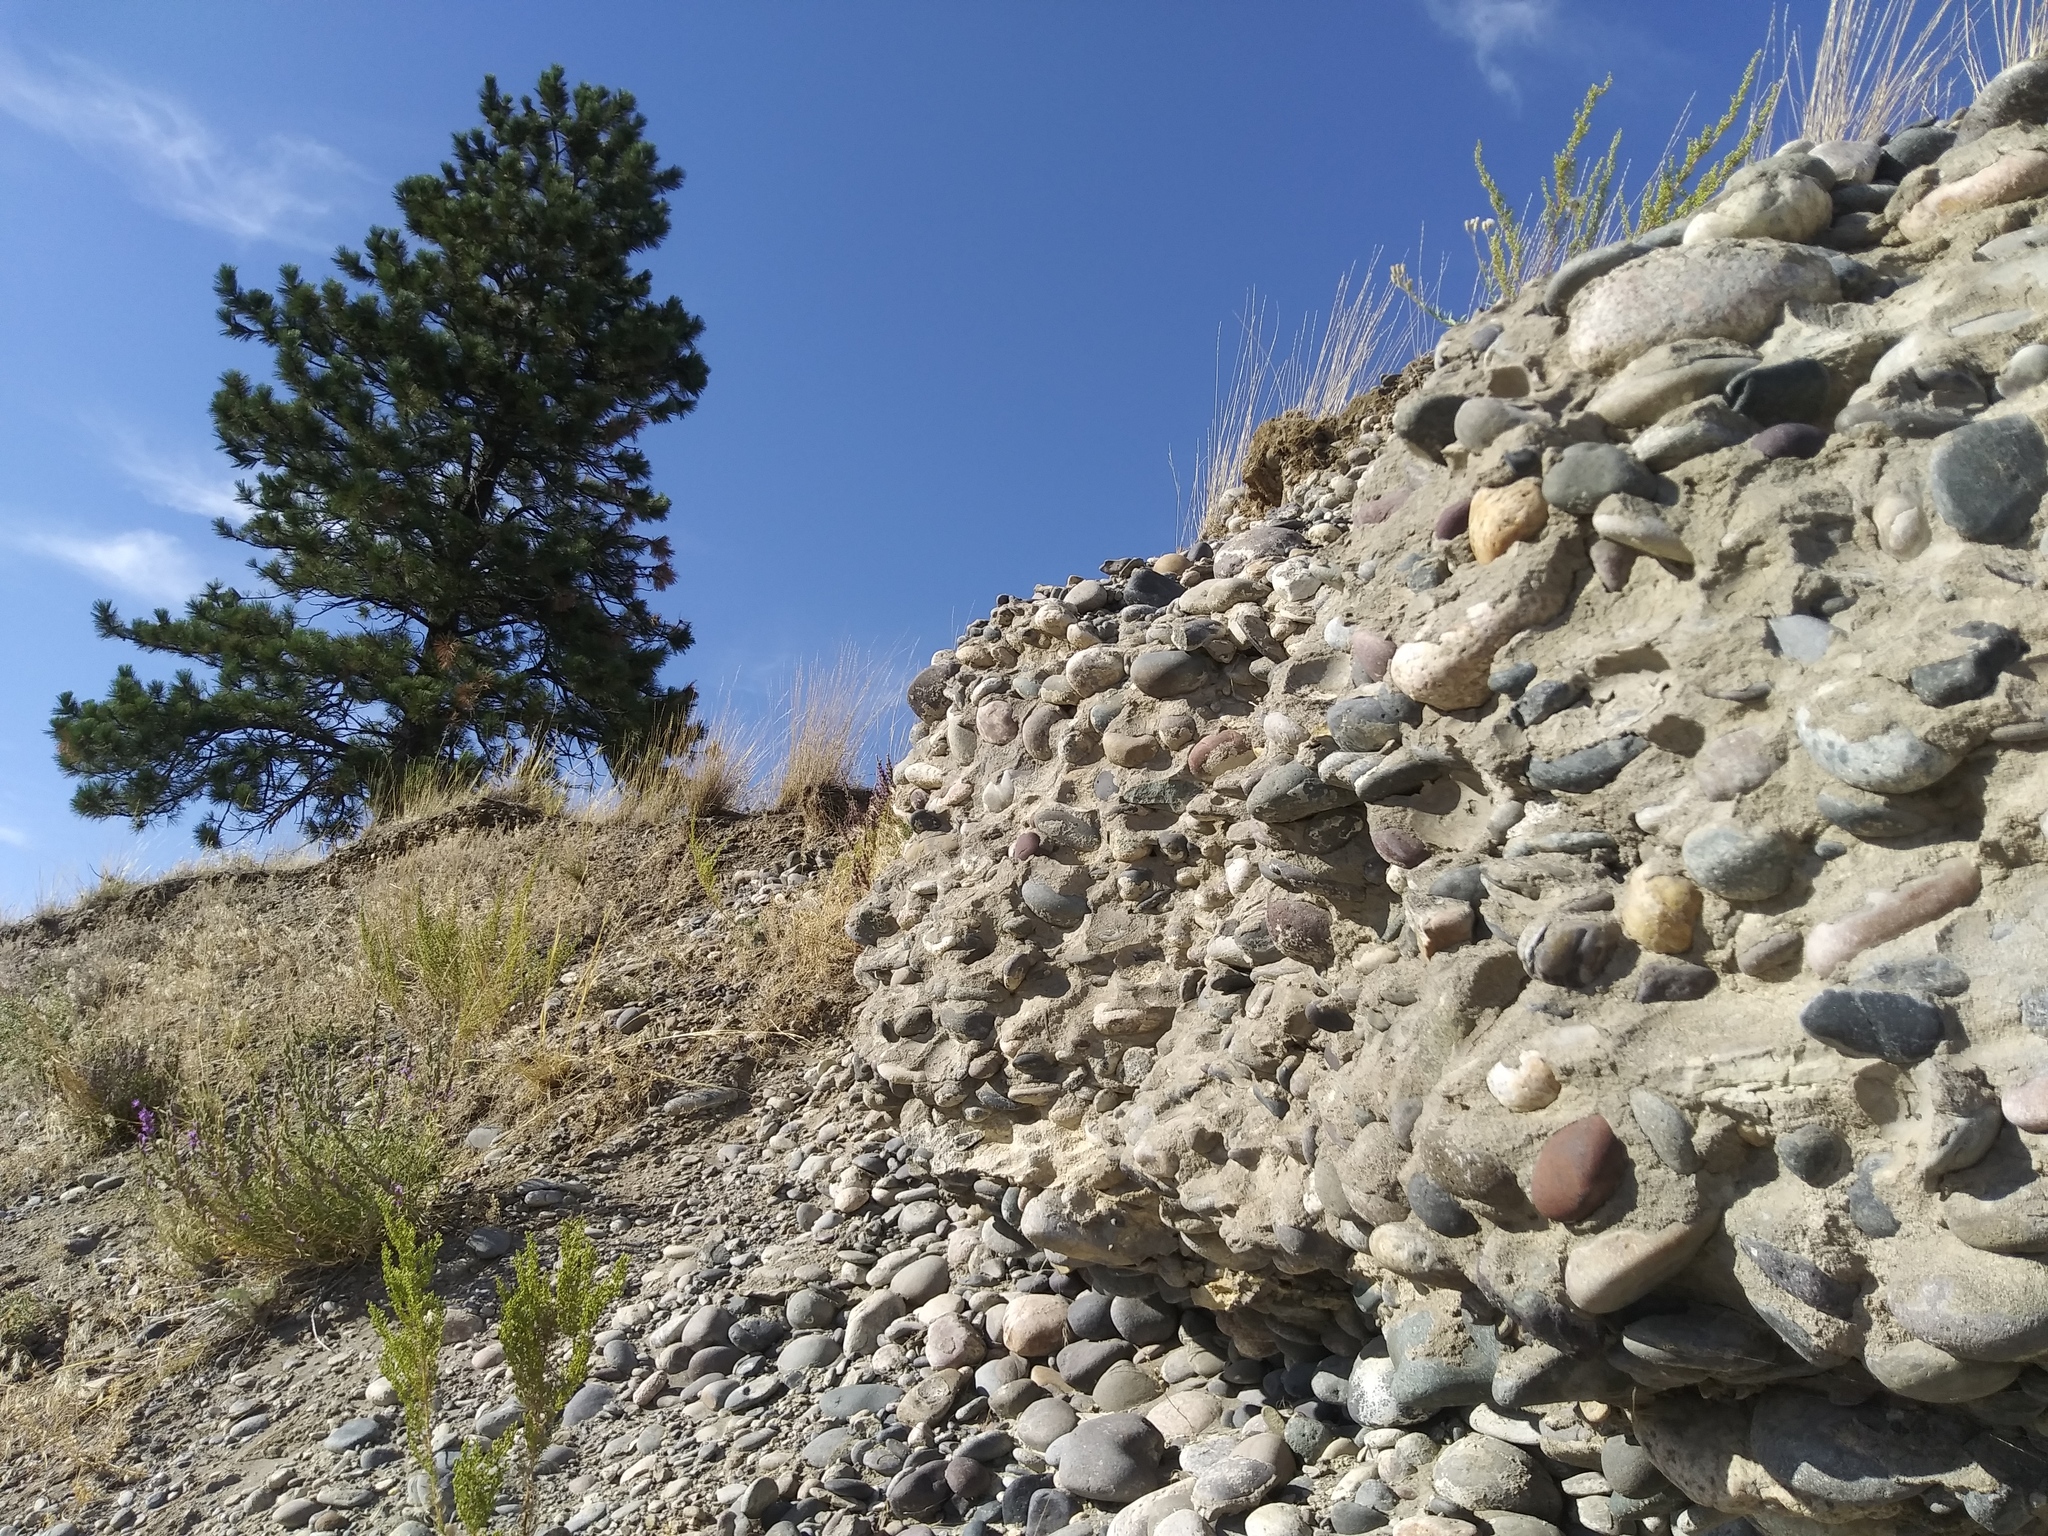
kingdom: Plantae
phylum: Tracheophyta
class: Pinopsida
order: Pinales
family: Pinaceae
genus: Pinus
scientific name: Pinus ponderosa
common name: Western yellow-pine
